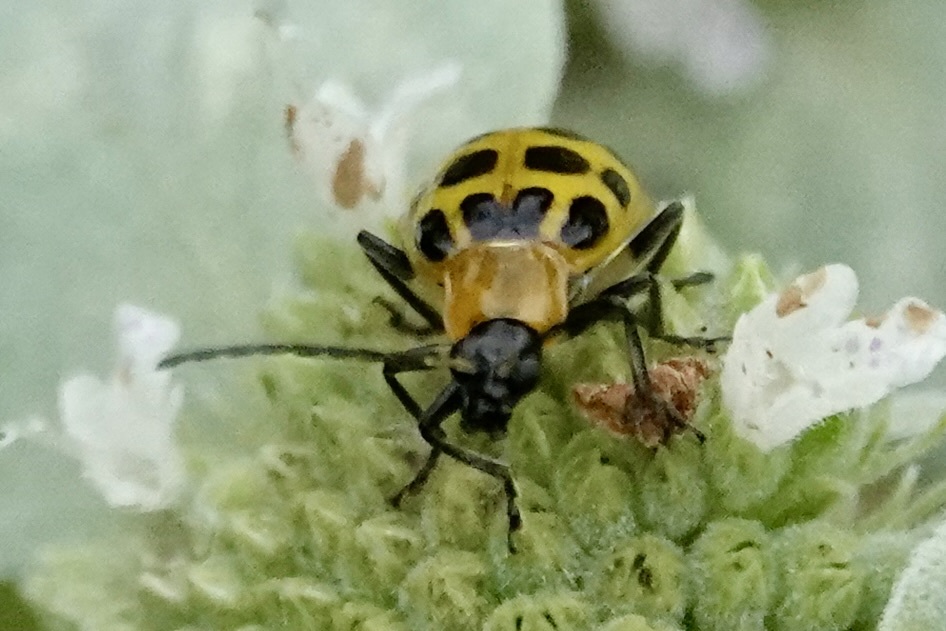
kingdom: Animalia
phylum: Arthropoda
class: Insecta
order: Coleoptera
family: Chrysomelidae
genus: Diabrotica
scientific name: Diabrotica undecimpunctata
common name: Spotted cucumber beetle
